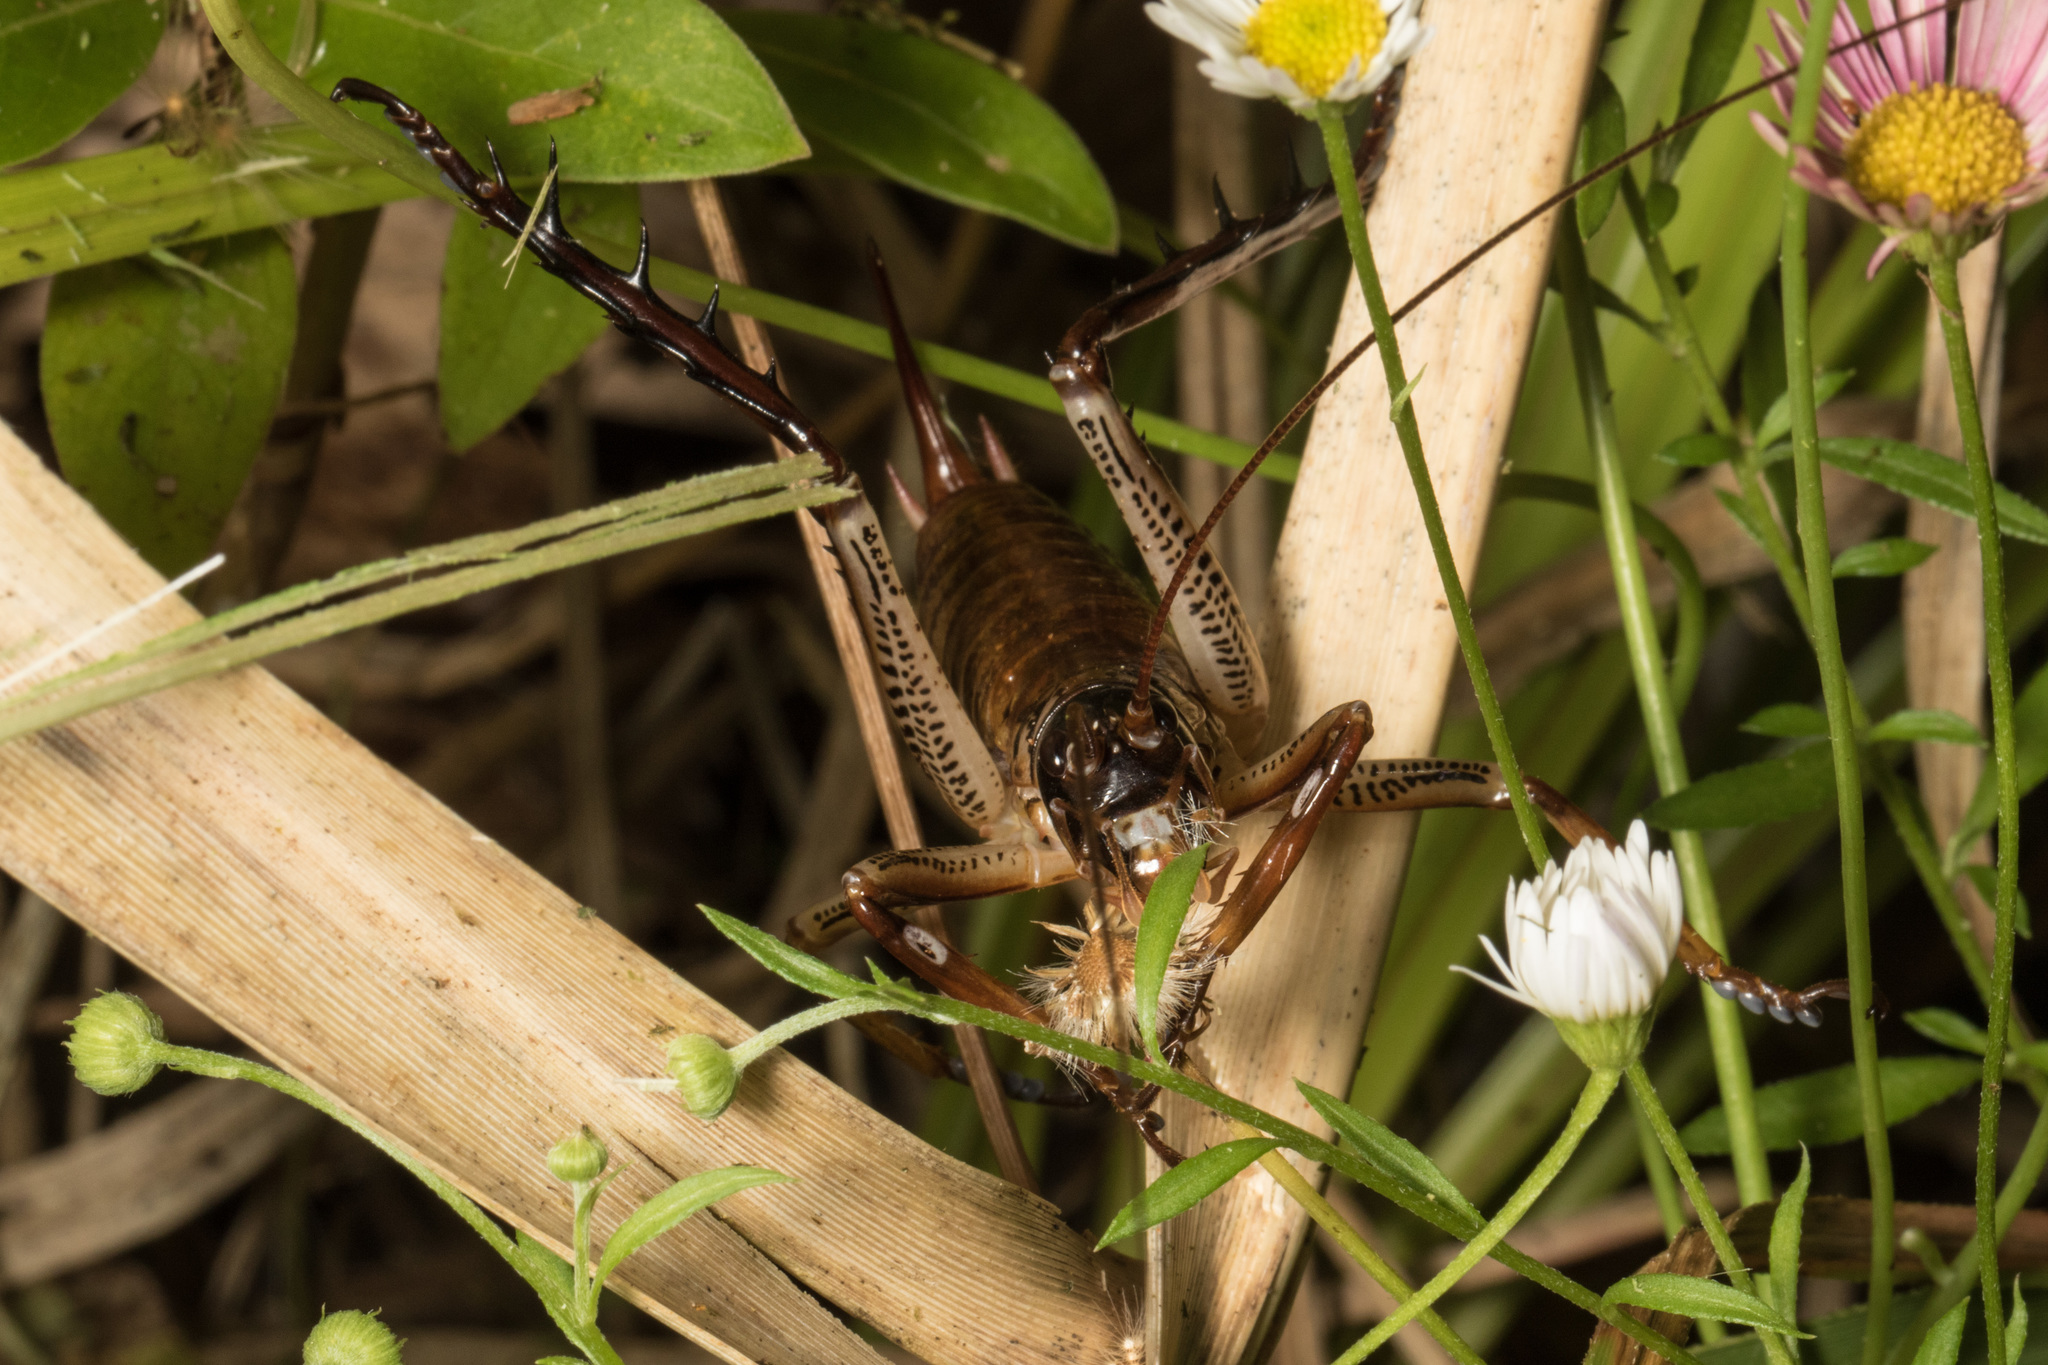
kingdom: Animalia
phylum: Arthropoda
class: Insecta
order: Orthoptera
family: Anostostomatidae
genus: Hemideina
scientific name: Hemideina thoracica
